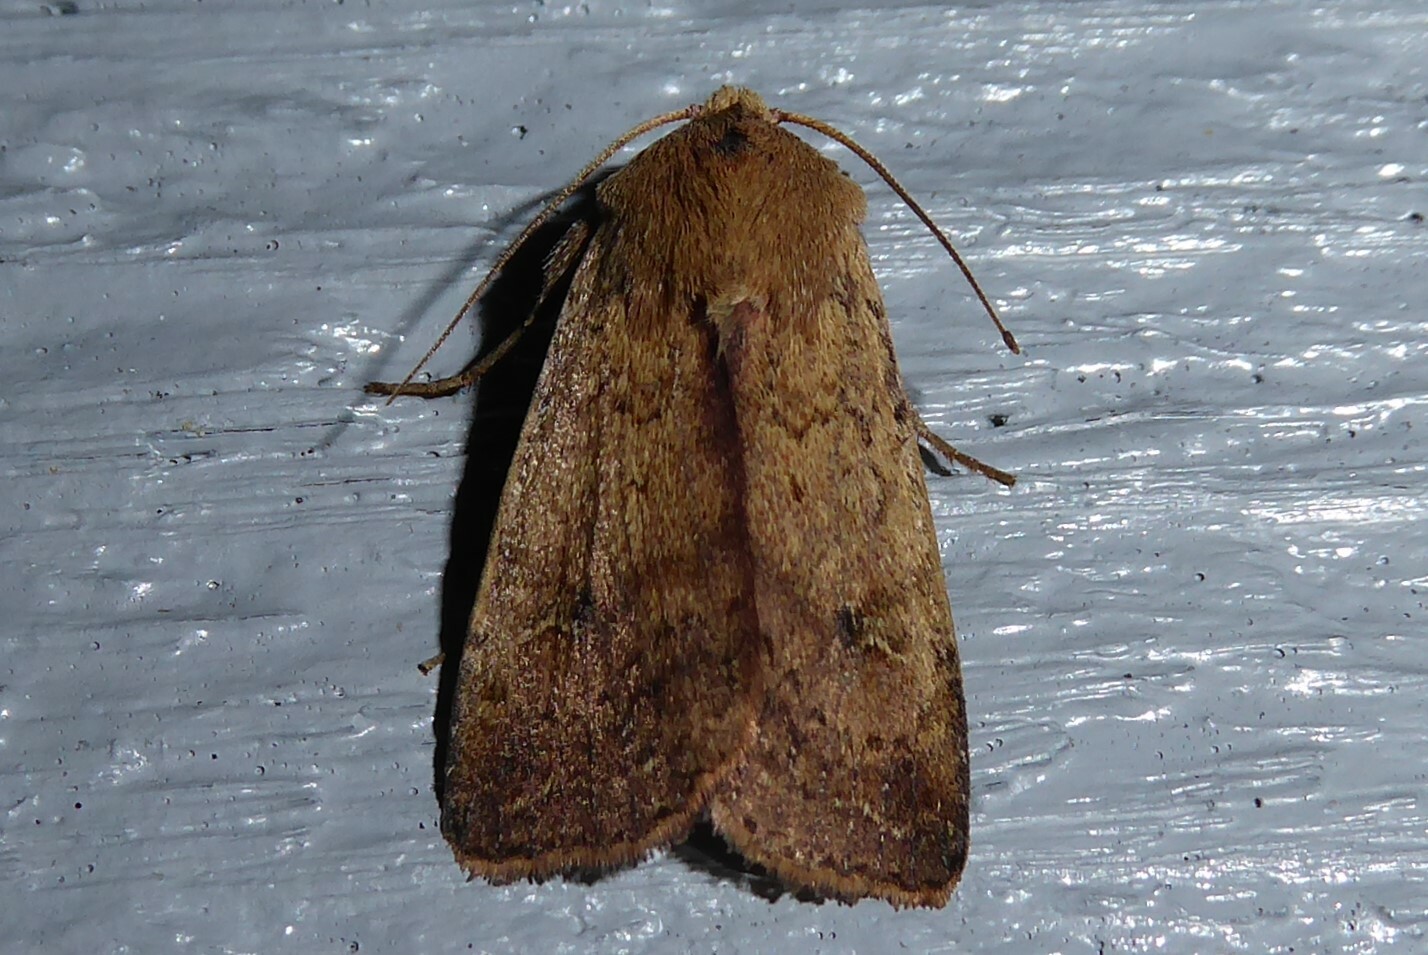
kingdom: Animalia
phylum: Arthropoda
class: Insecta
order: Lepidoptera
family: Noctuidae
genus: Diarsia
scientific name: Diarsia intermixta
